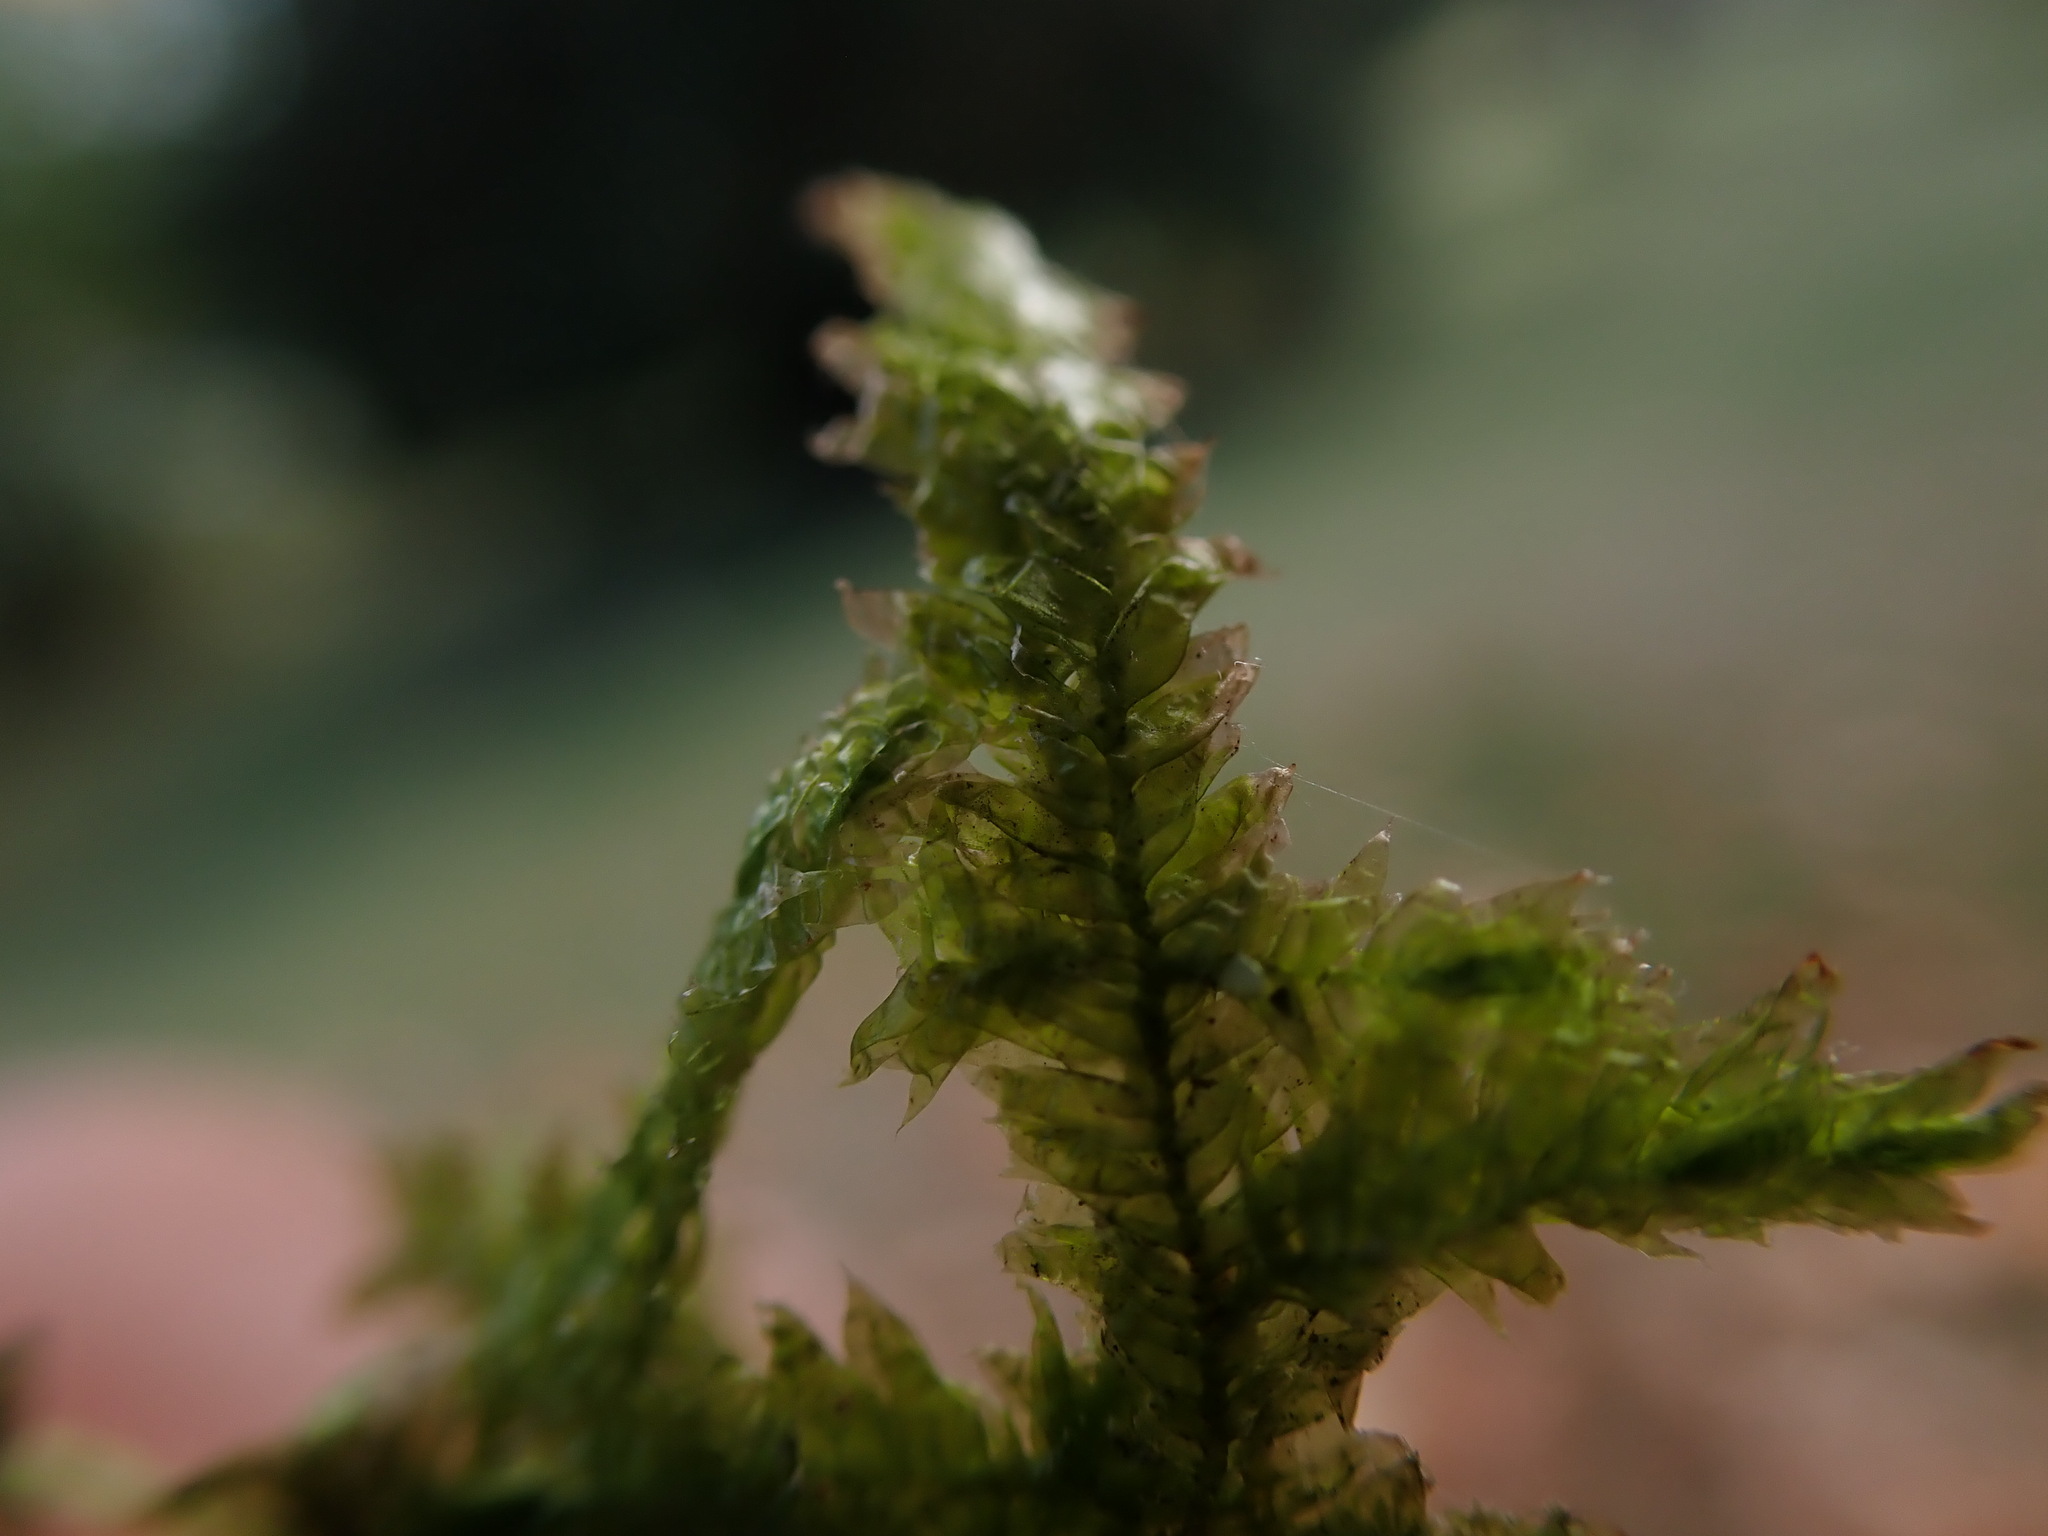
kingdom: Plantae
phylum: Bryophyta
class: Bryopsida
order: Hypnales
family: Neckeraceae
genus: Neckera
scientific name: Neckera douglasii
